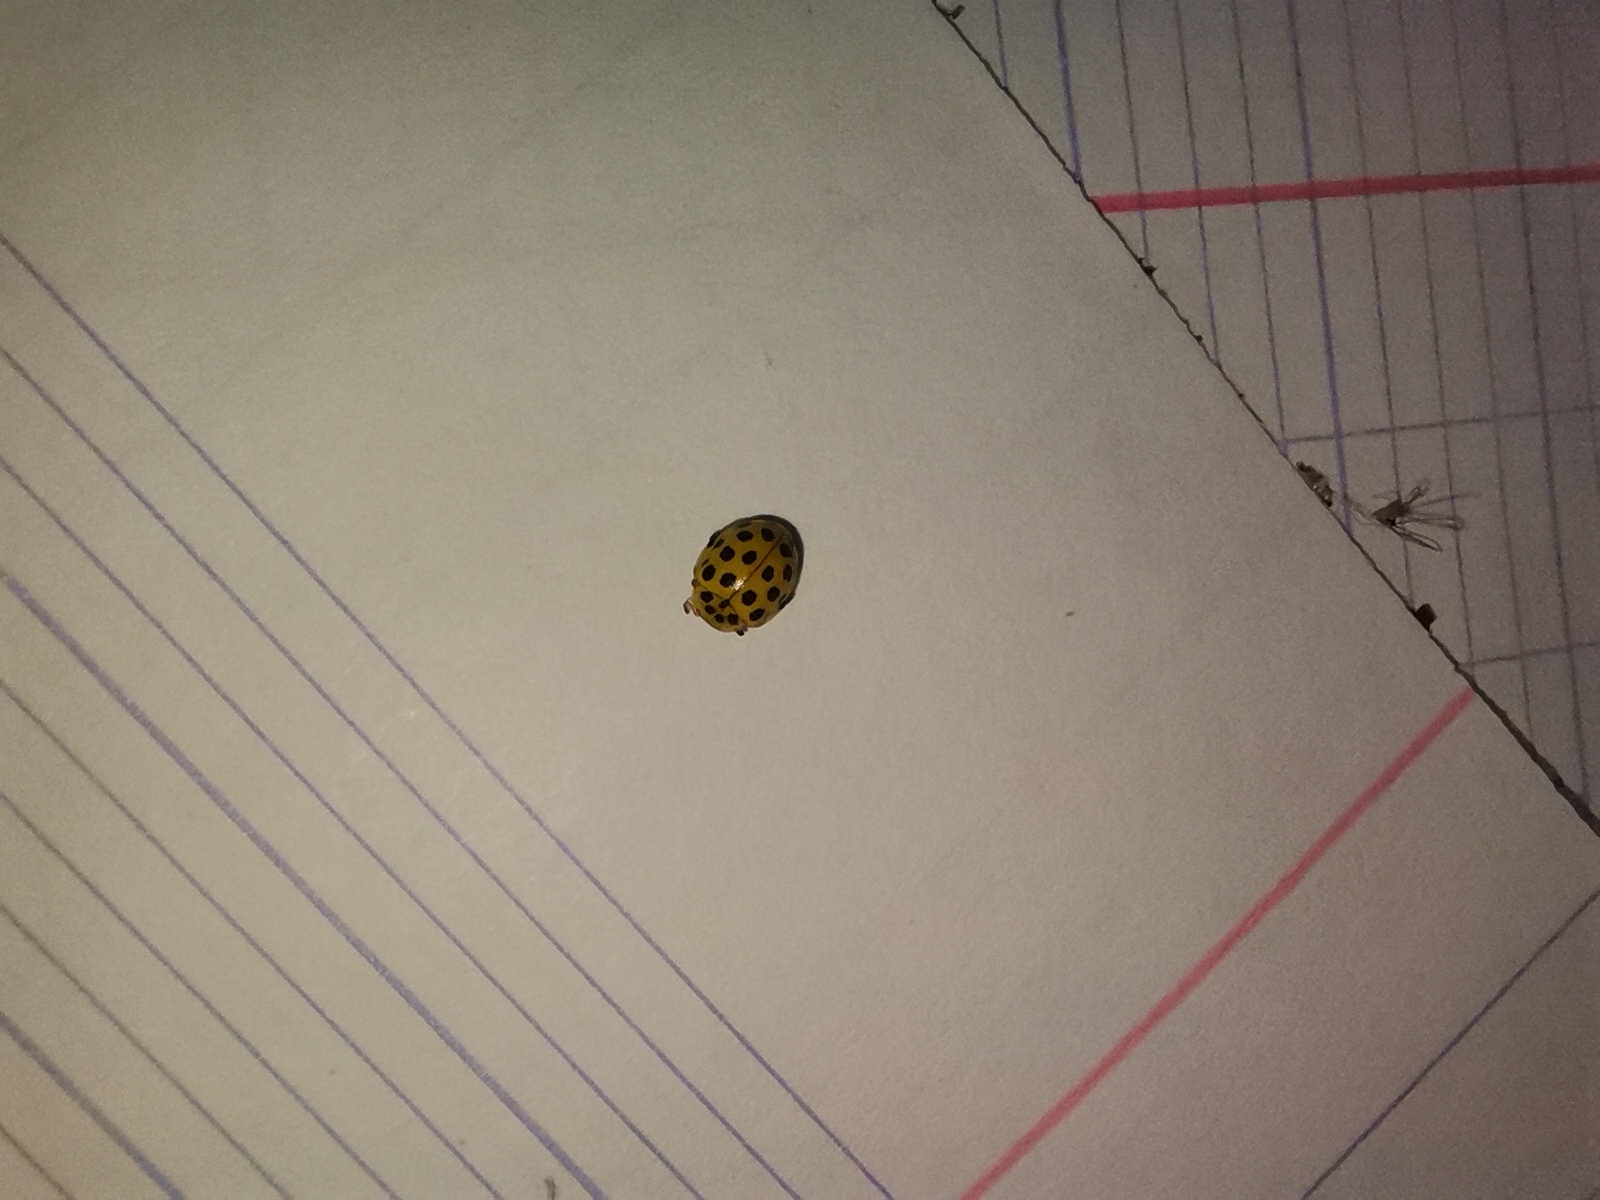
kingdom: Animalia
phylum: Arthropoda
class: Insecta
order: Coleoptera
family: Coccinellidae
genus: Psyllobora
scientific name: Psyllobora vigintiduopunctata
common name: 22-spot ladybird
